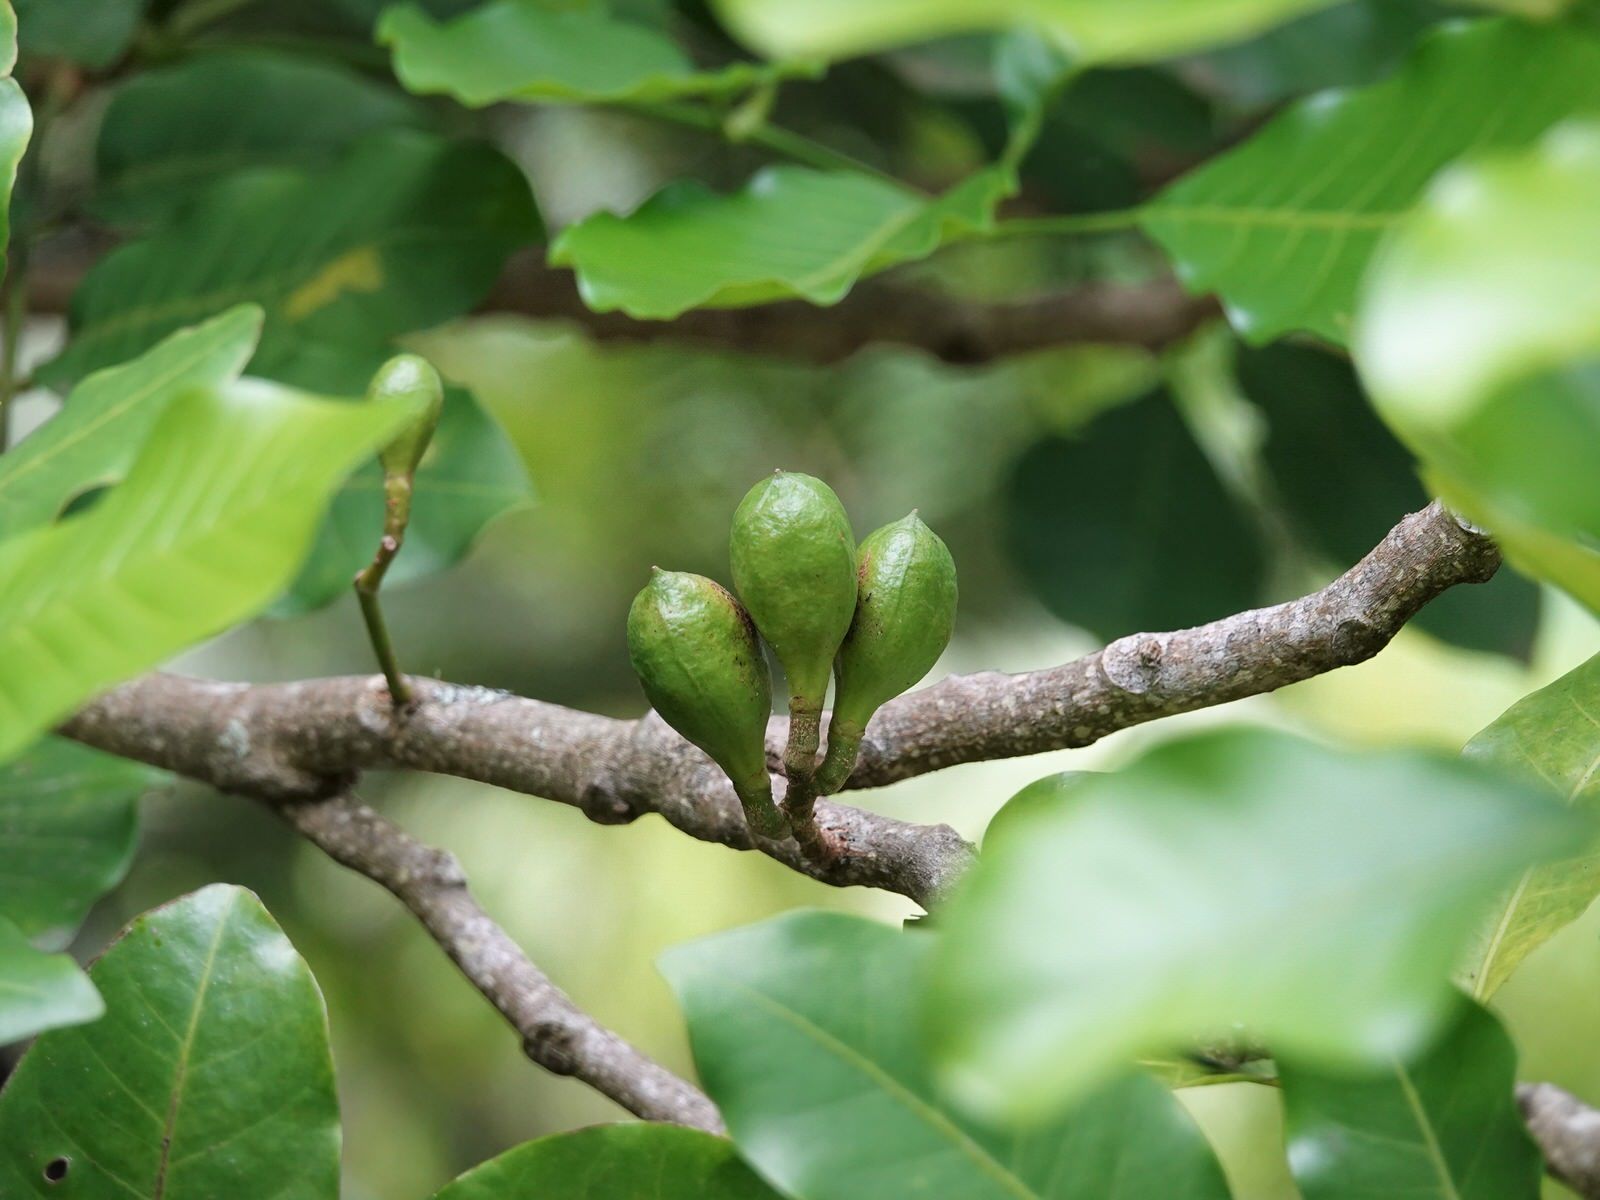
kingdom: Plantae
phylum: Tracheophyta
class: Magnoliopsida
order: Sapindales
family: Meliaceae
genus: Didymocheton
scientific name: Didymocheton spectabilis
